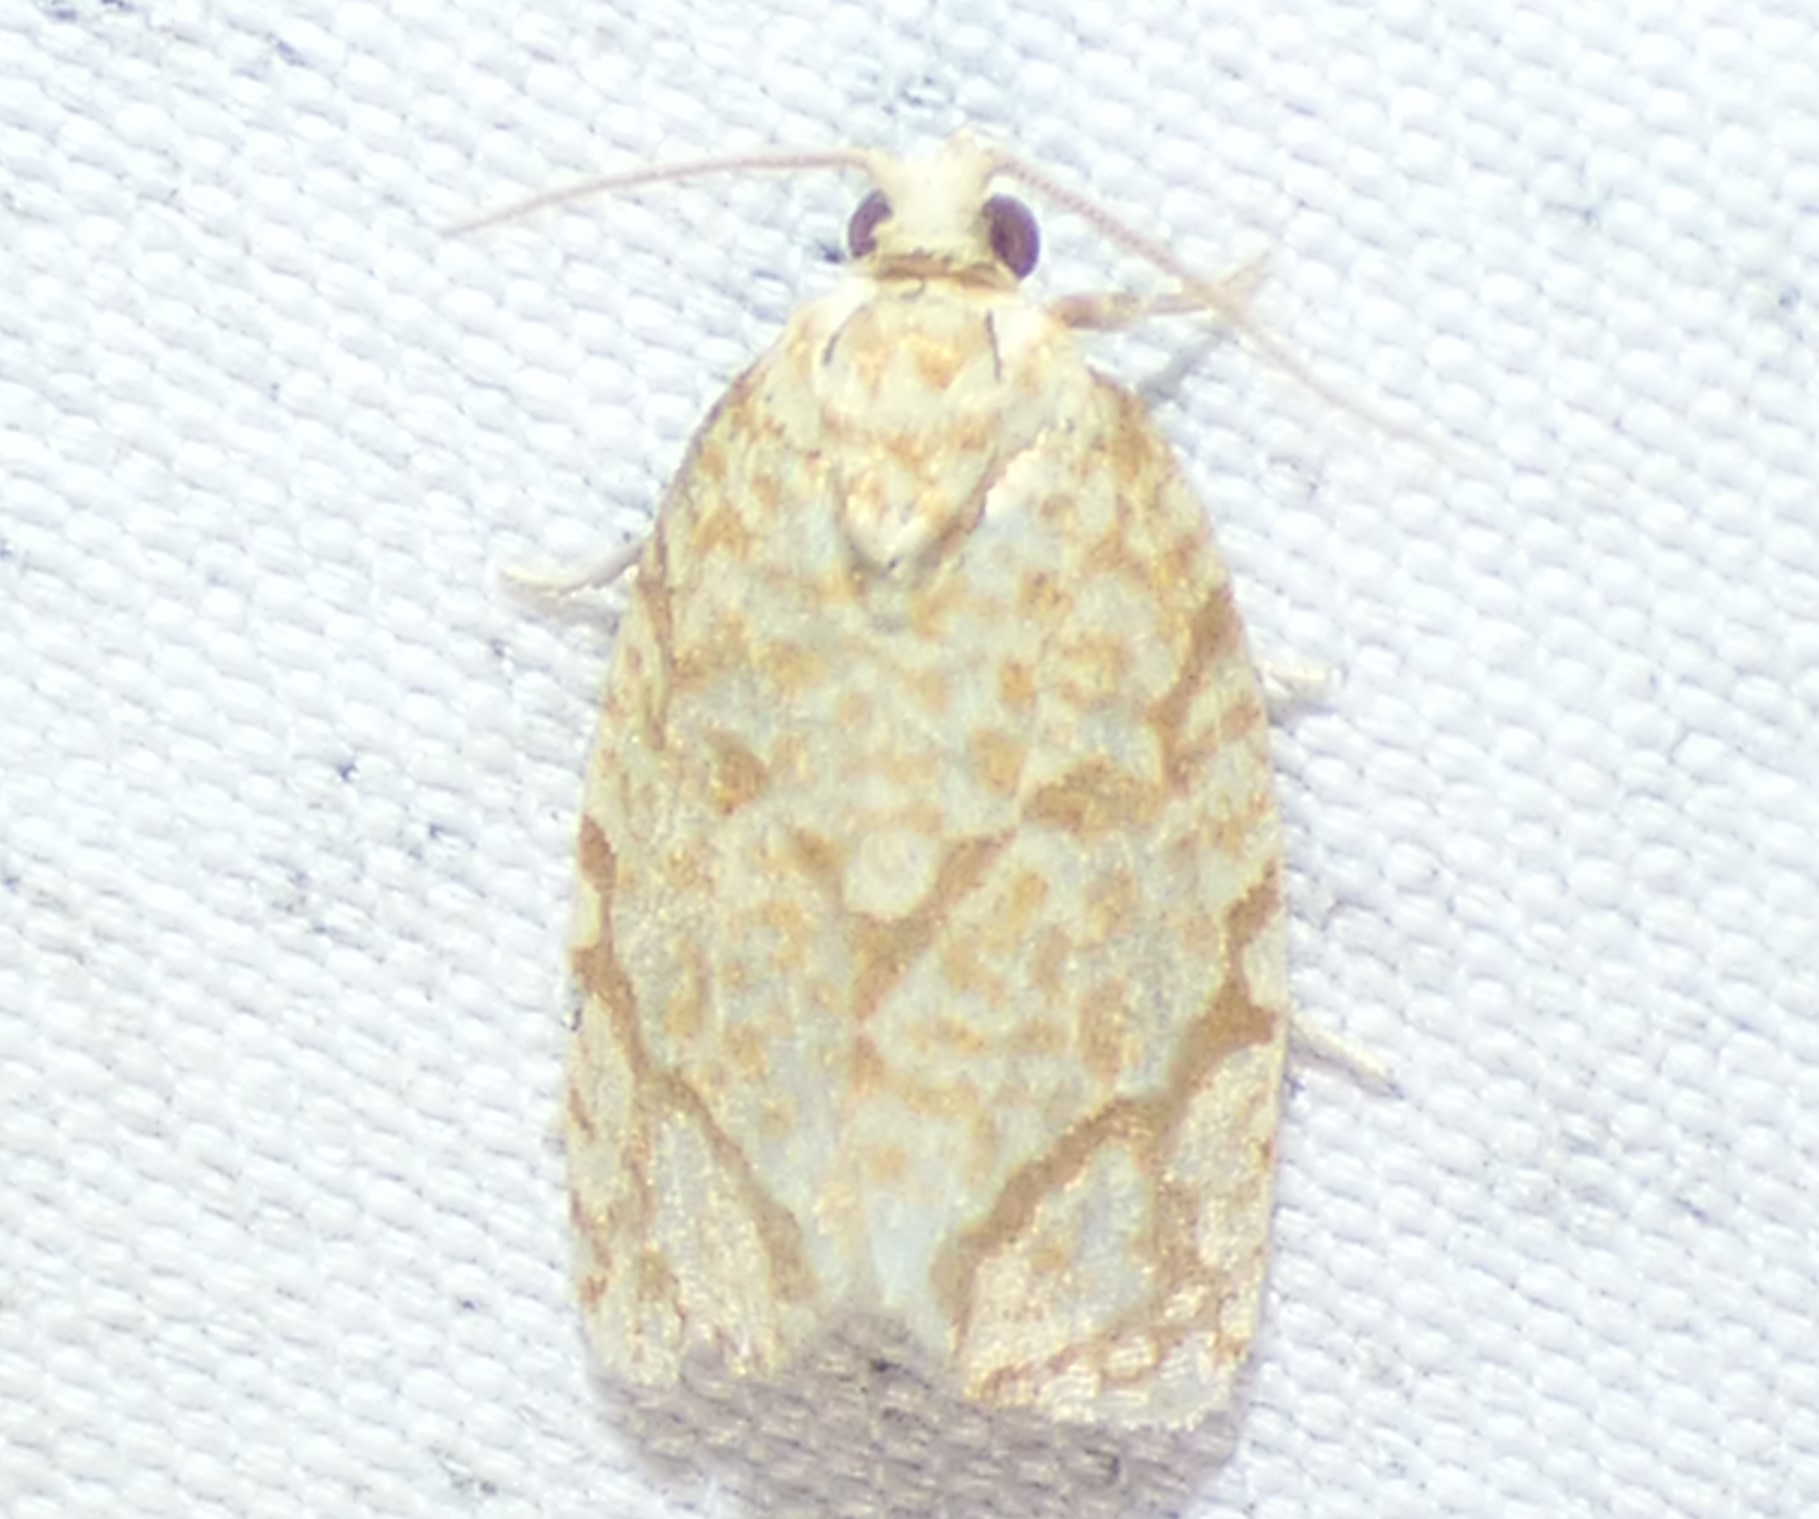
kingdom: Animalia
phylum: Arthropoda
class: Insecta
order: Lepidoptera
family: Tortricidae
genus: Argyrotaenia
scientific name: Argyrotaenia quercifoliana
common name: Yellow-winged oak leafroller moth
